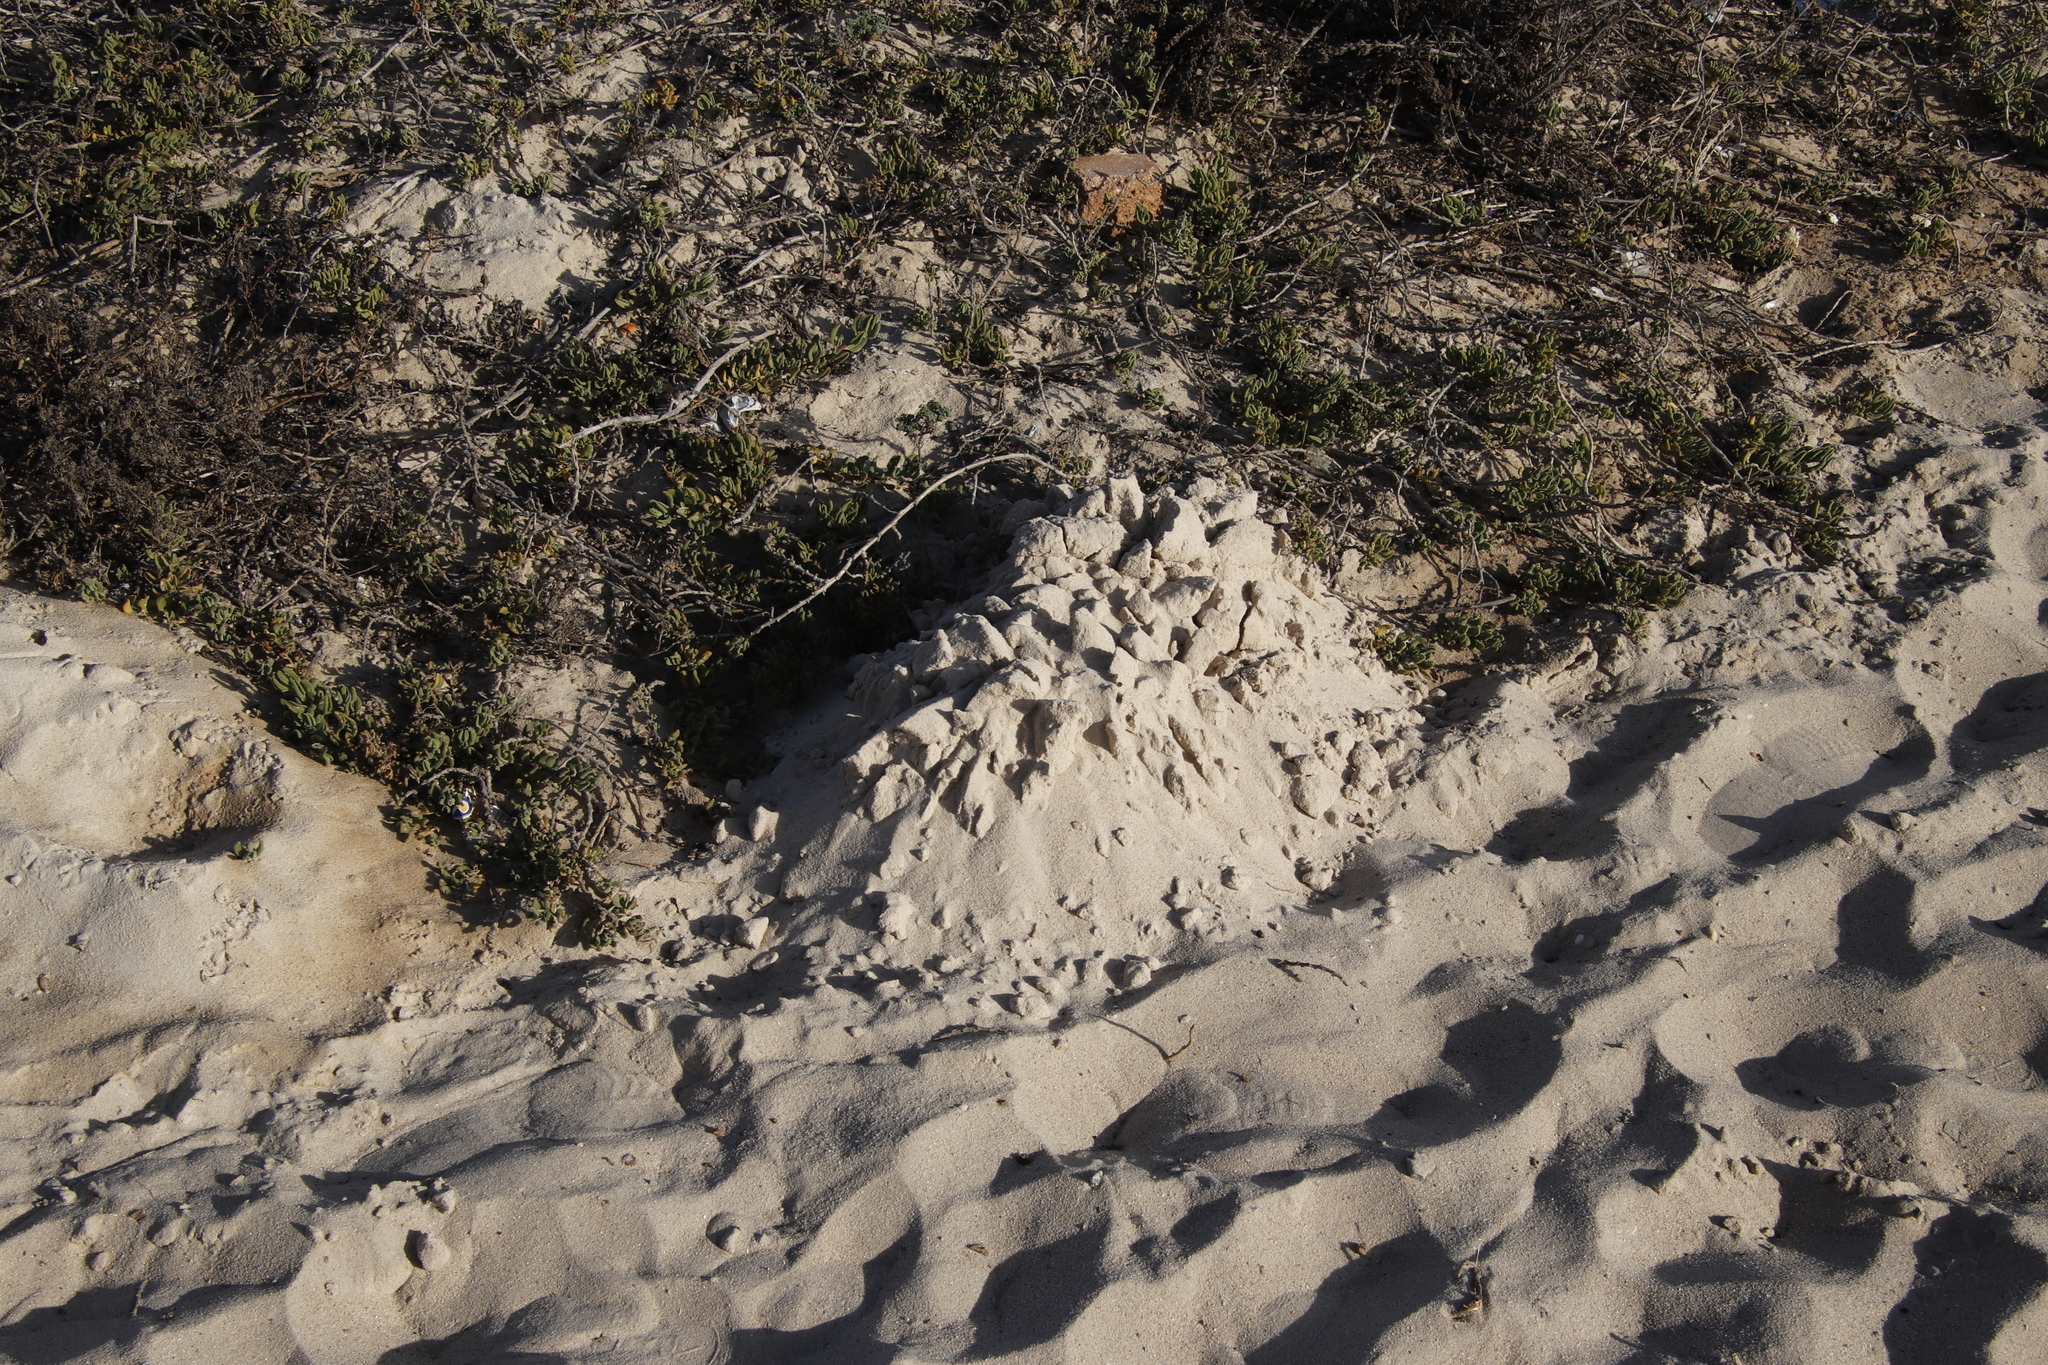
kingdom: Animalia
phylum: Chordata
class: Mammalia
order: Rodentia
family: Bathyergidae
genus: Bathyergus
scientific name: Bathyergus suillus
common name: Cape dune mole rat
